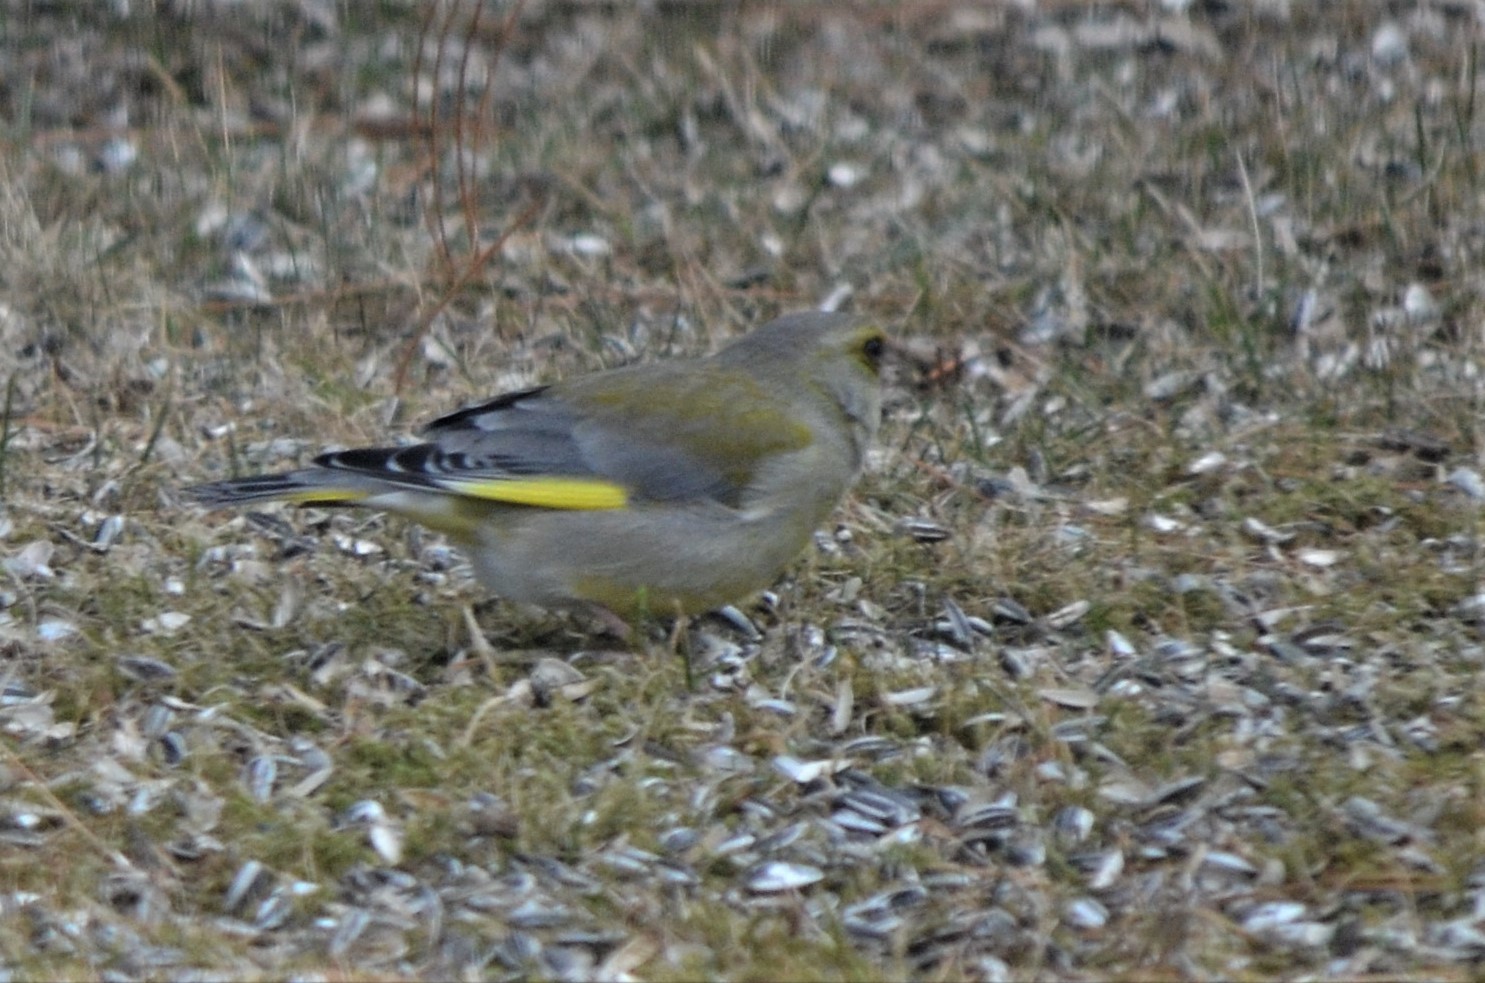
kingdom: Plantae
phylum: Tracheophyta
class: Liliopsida
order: Poales
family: Poaceae
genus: Chloris
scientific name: Chloris chloris
